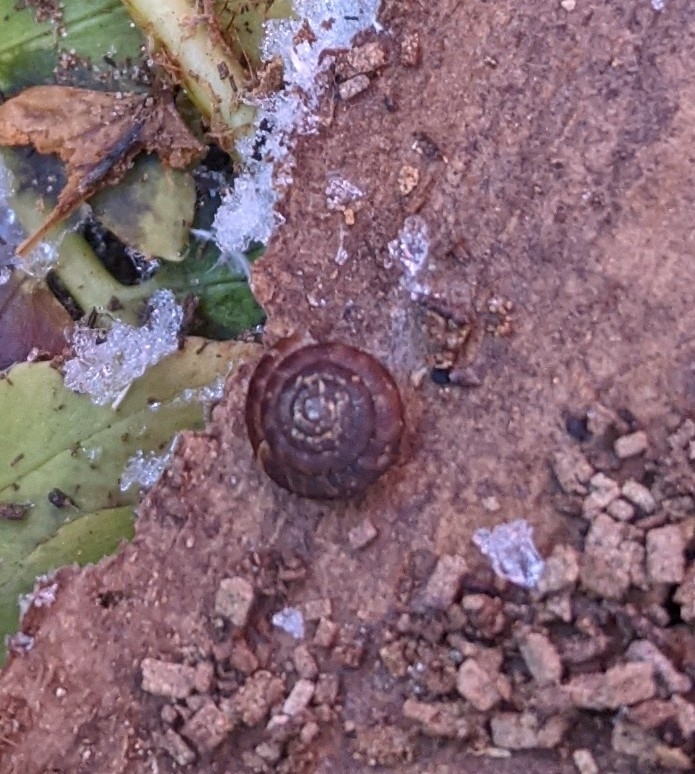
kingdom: Animalia
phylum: Mollusca
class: Gastropoda
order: Stylommatophora
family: Discidae
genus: Discus
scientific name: Discus rotundatus
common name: Rounded snail
